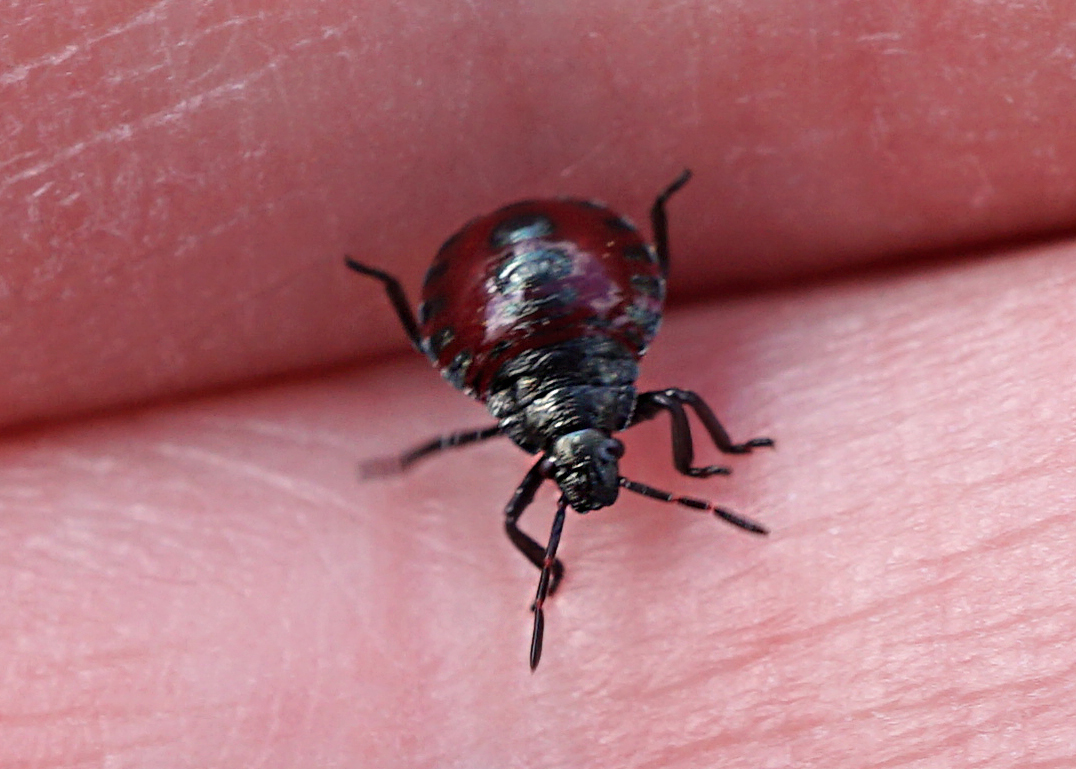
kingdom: Animalia
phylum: Arthropoda
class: Insecta
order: Hemiptera
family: Pentatomidae
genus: Picromerus
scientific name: Picromerus bidens
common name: Spiked shieldbug
